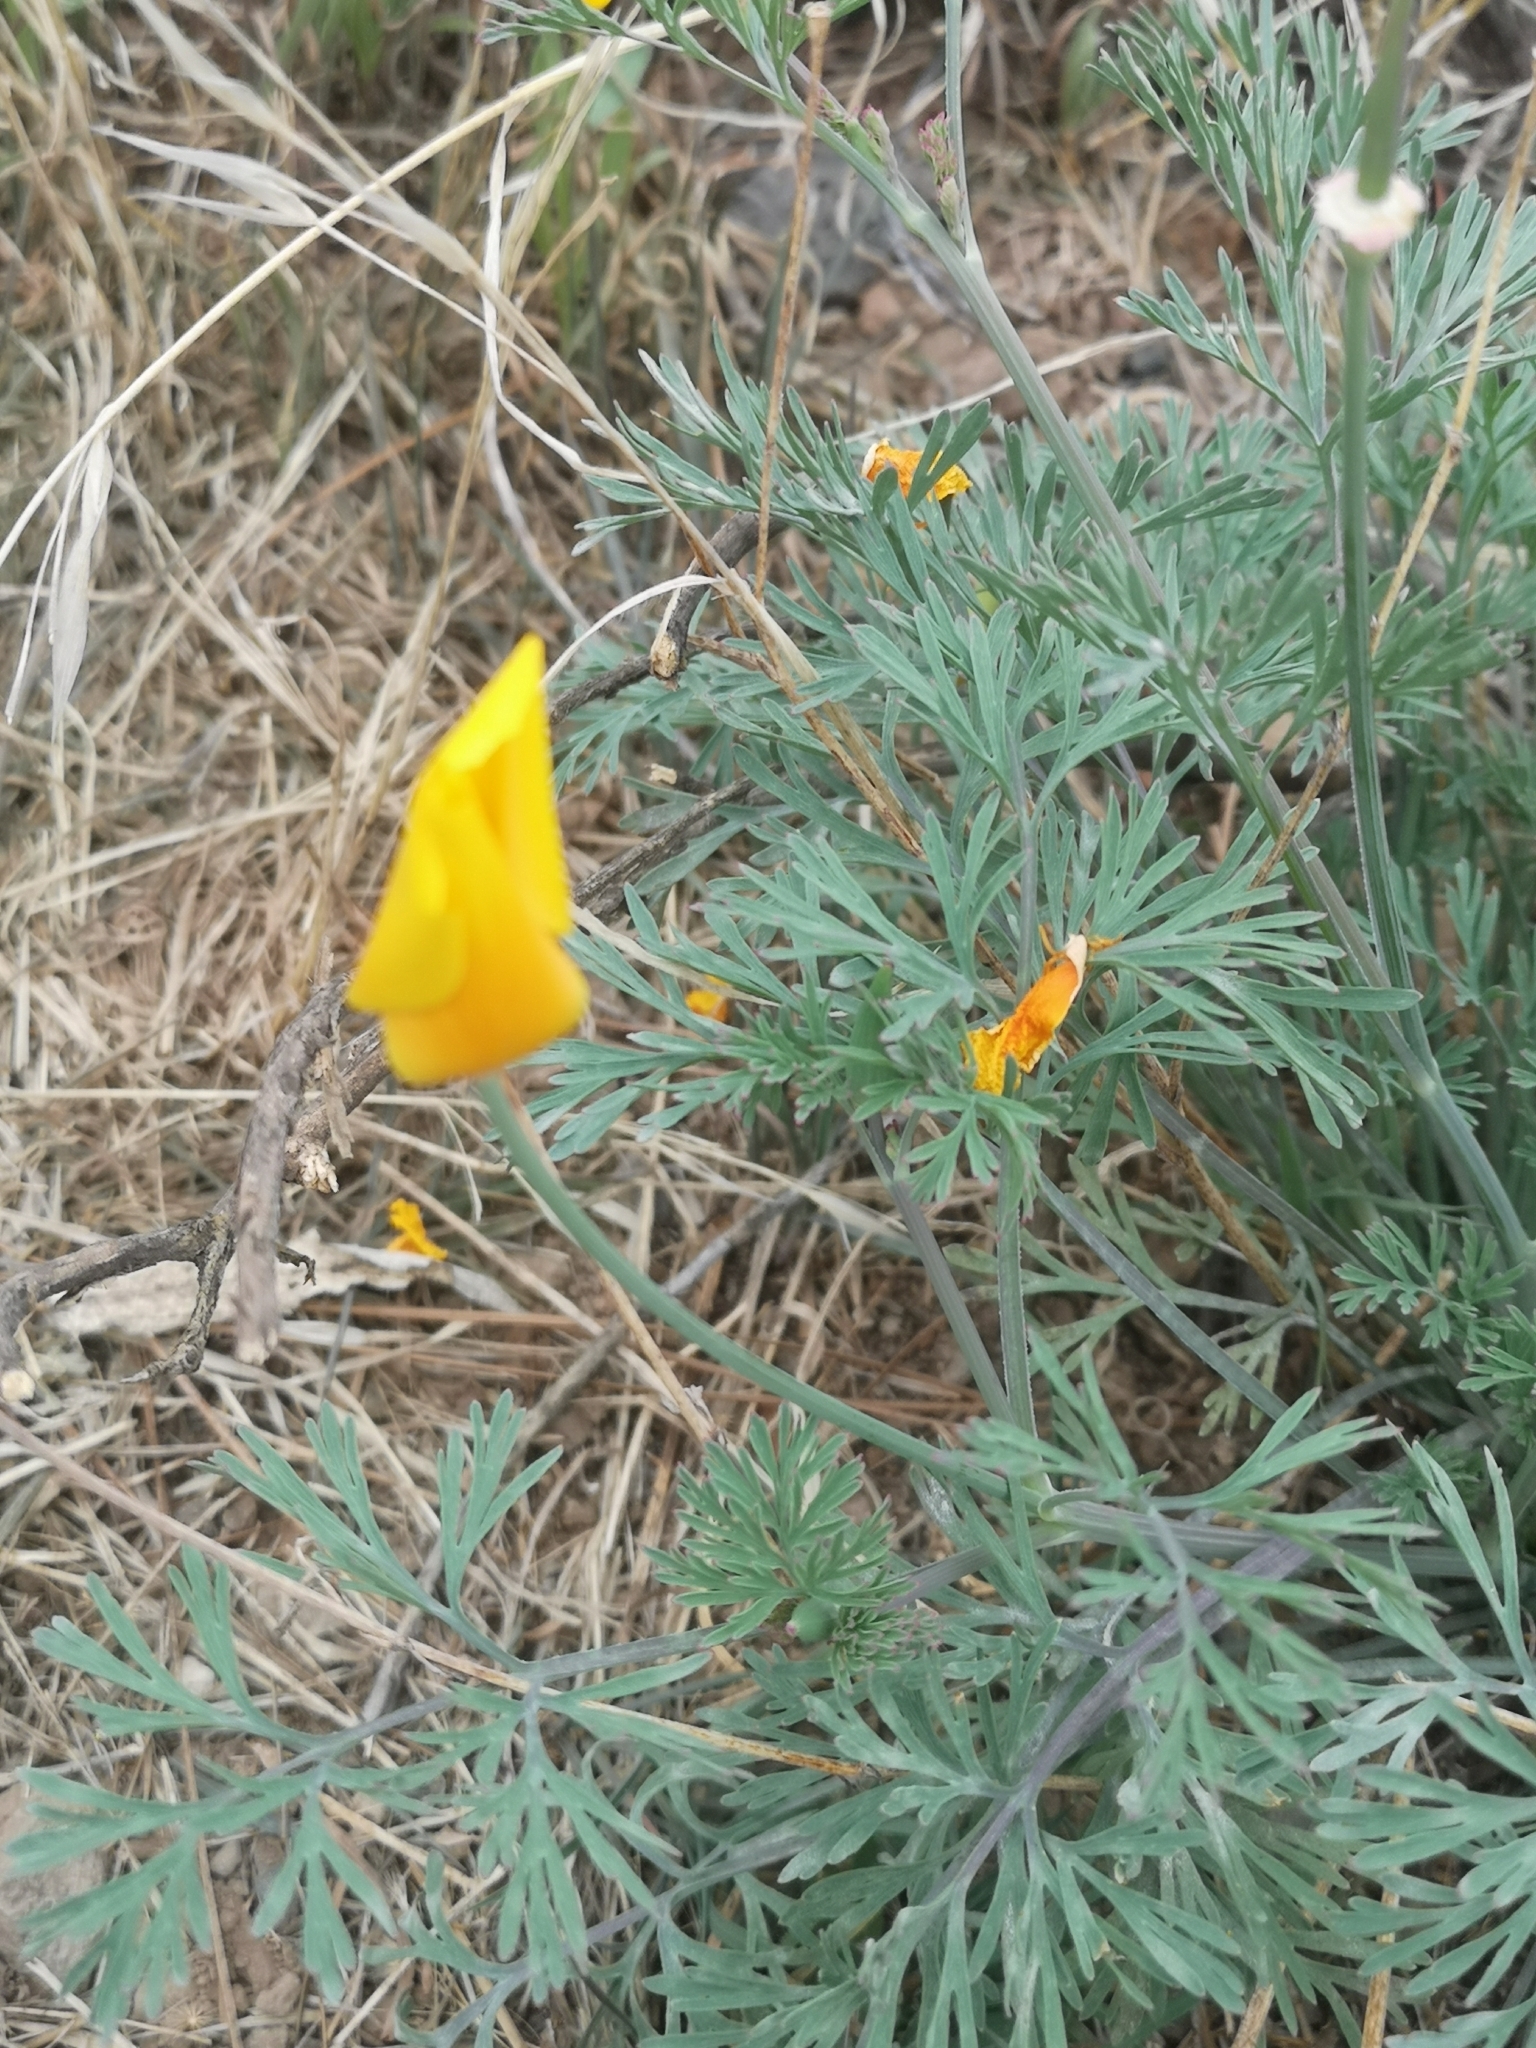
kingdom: Plantae
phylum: Tracheophyta
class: Magnoliopsida
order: Ranunculales
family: Papaveraceae
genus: Eschscholzia
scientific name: Eschscholzia californica
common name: California poppy
